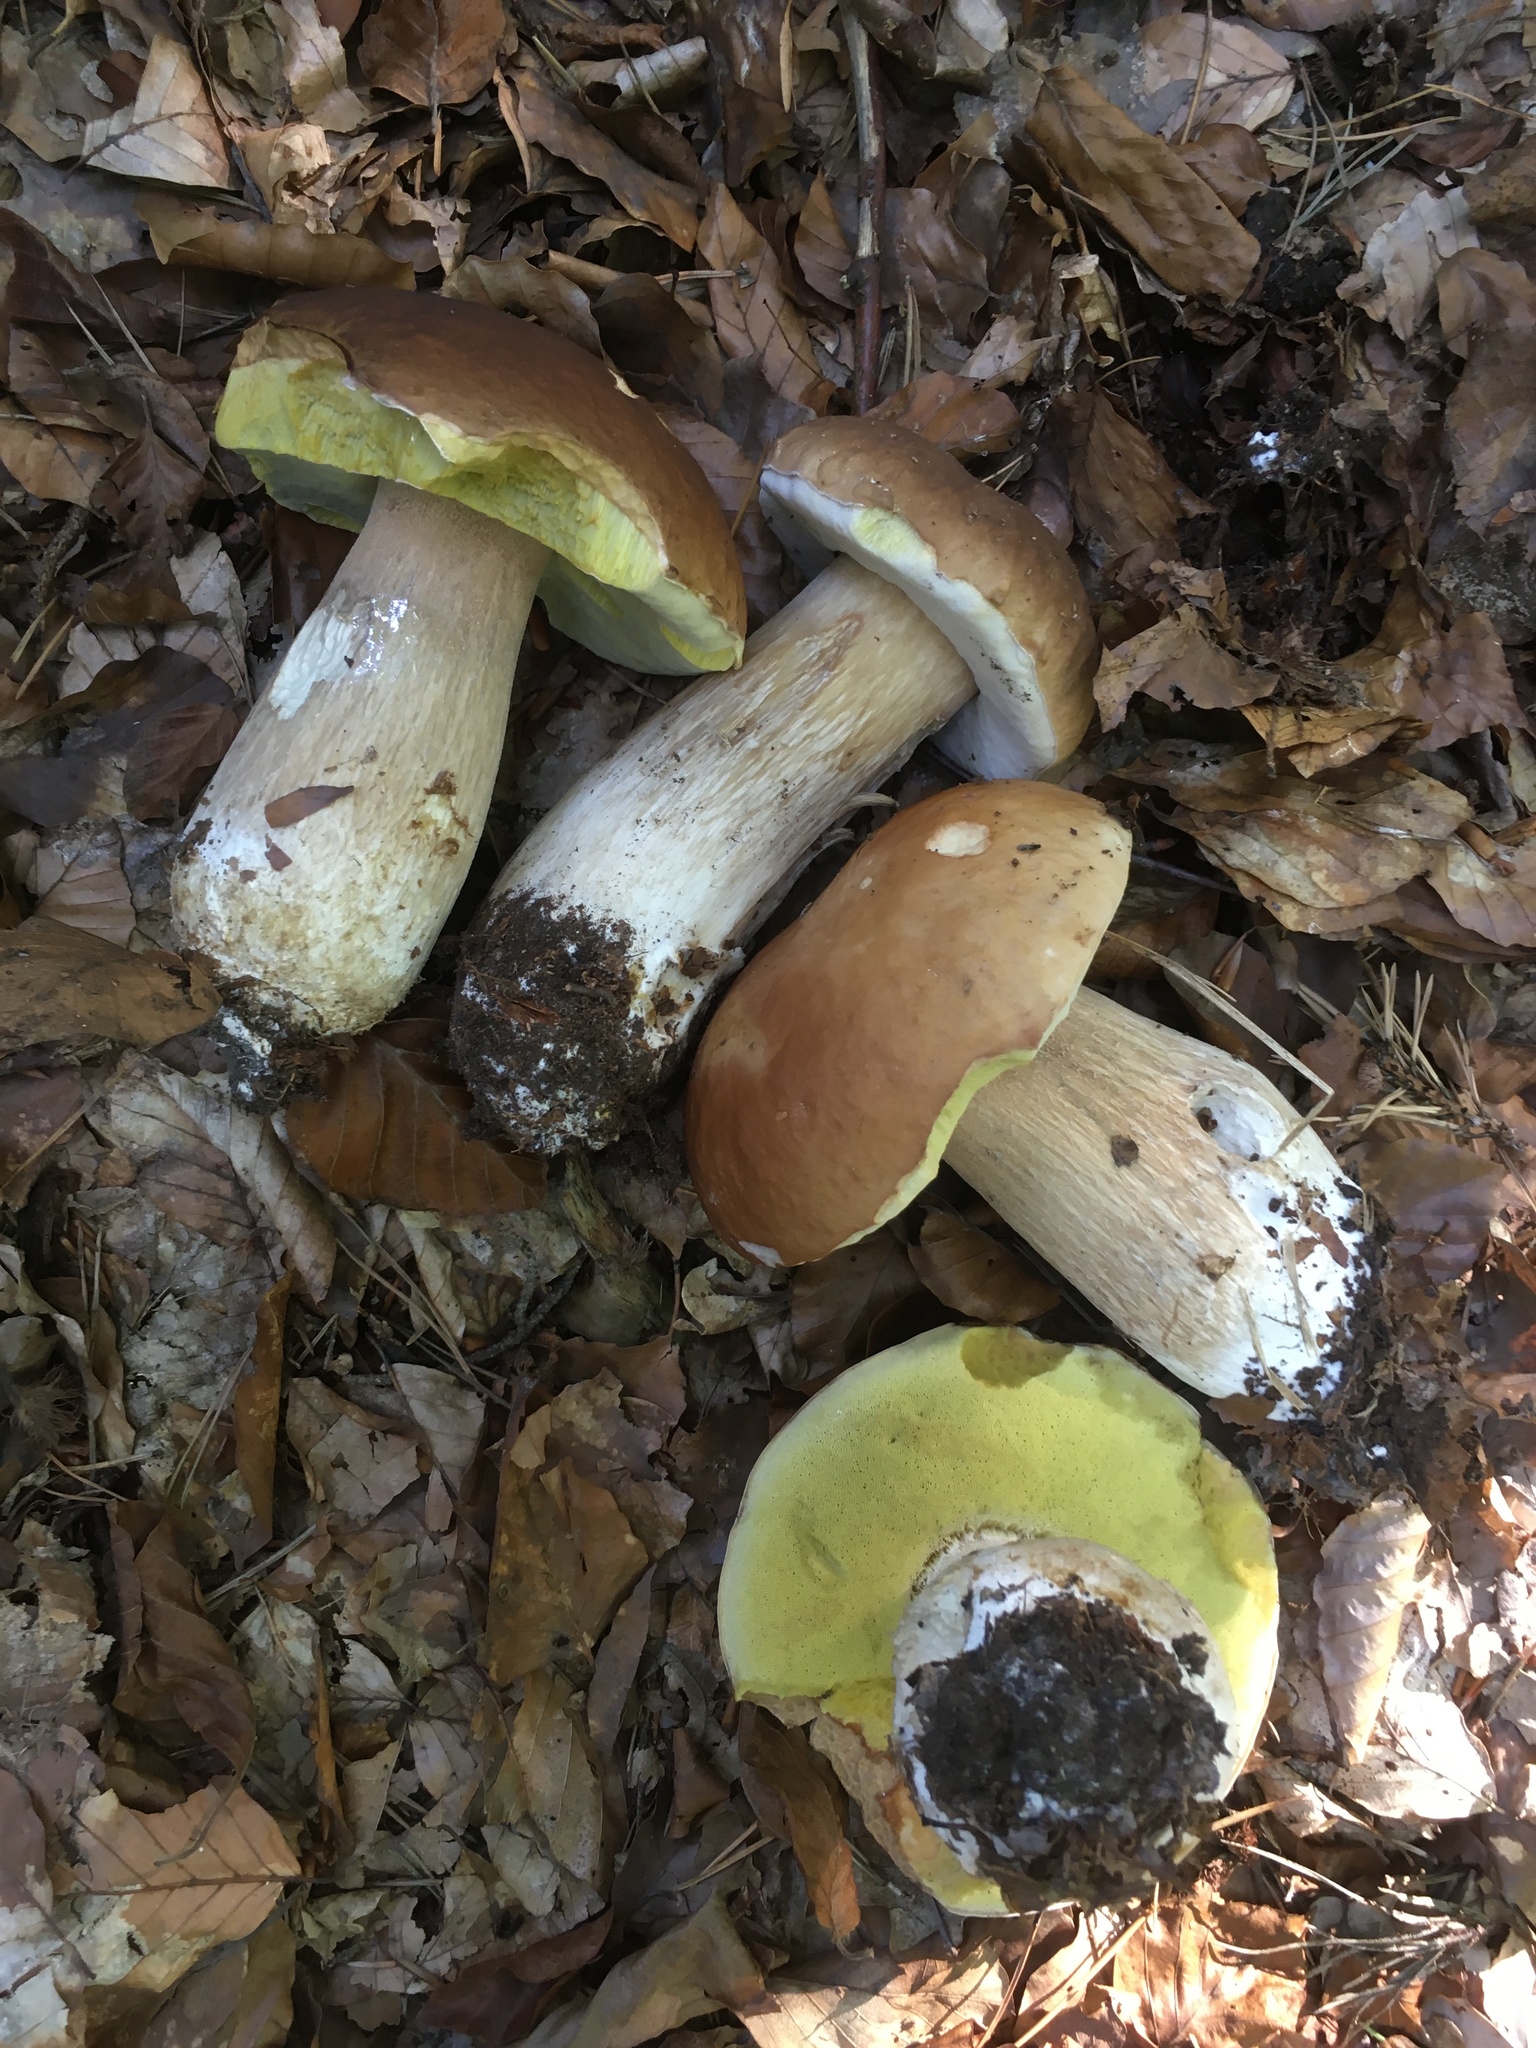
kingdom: Fungi
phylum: Basidiomycota
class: Agaricomycetes
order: Boletales
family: Boletaceae
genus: Boletus
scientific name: Boletus edulis
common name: Cep
